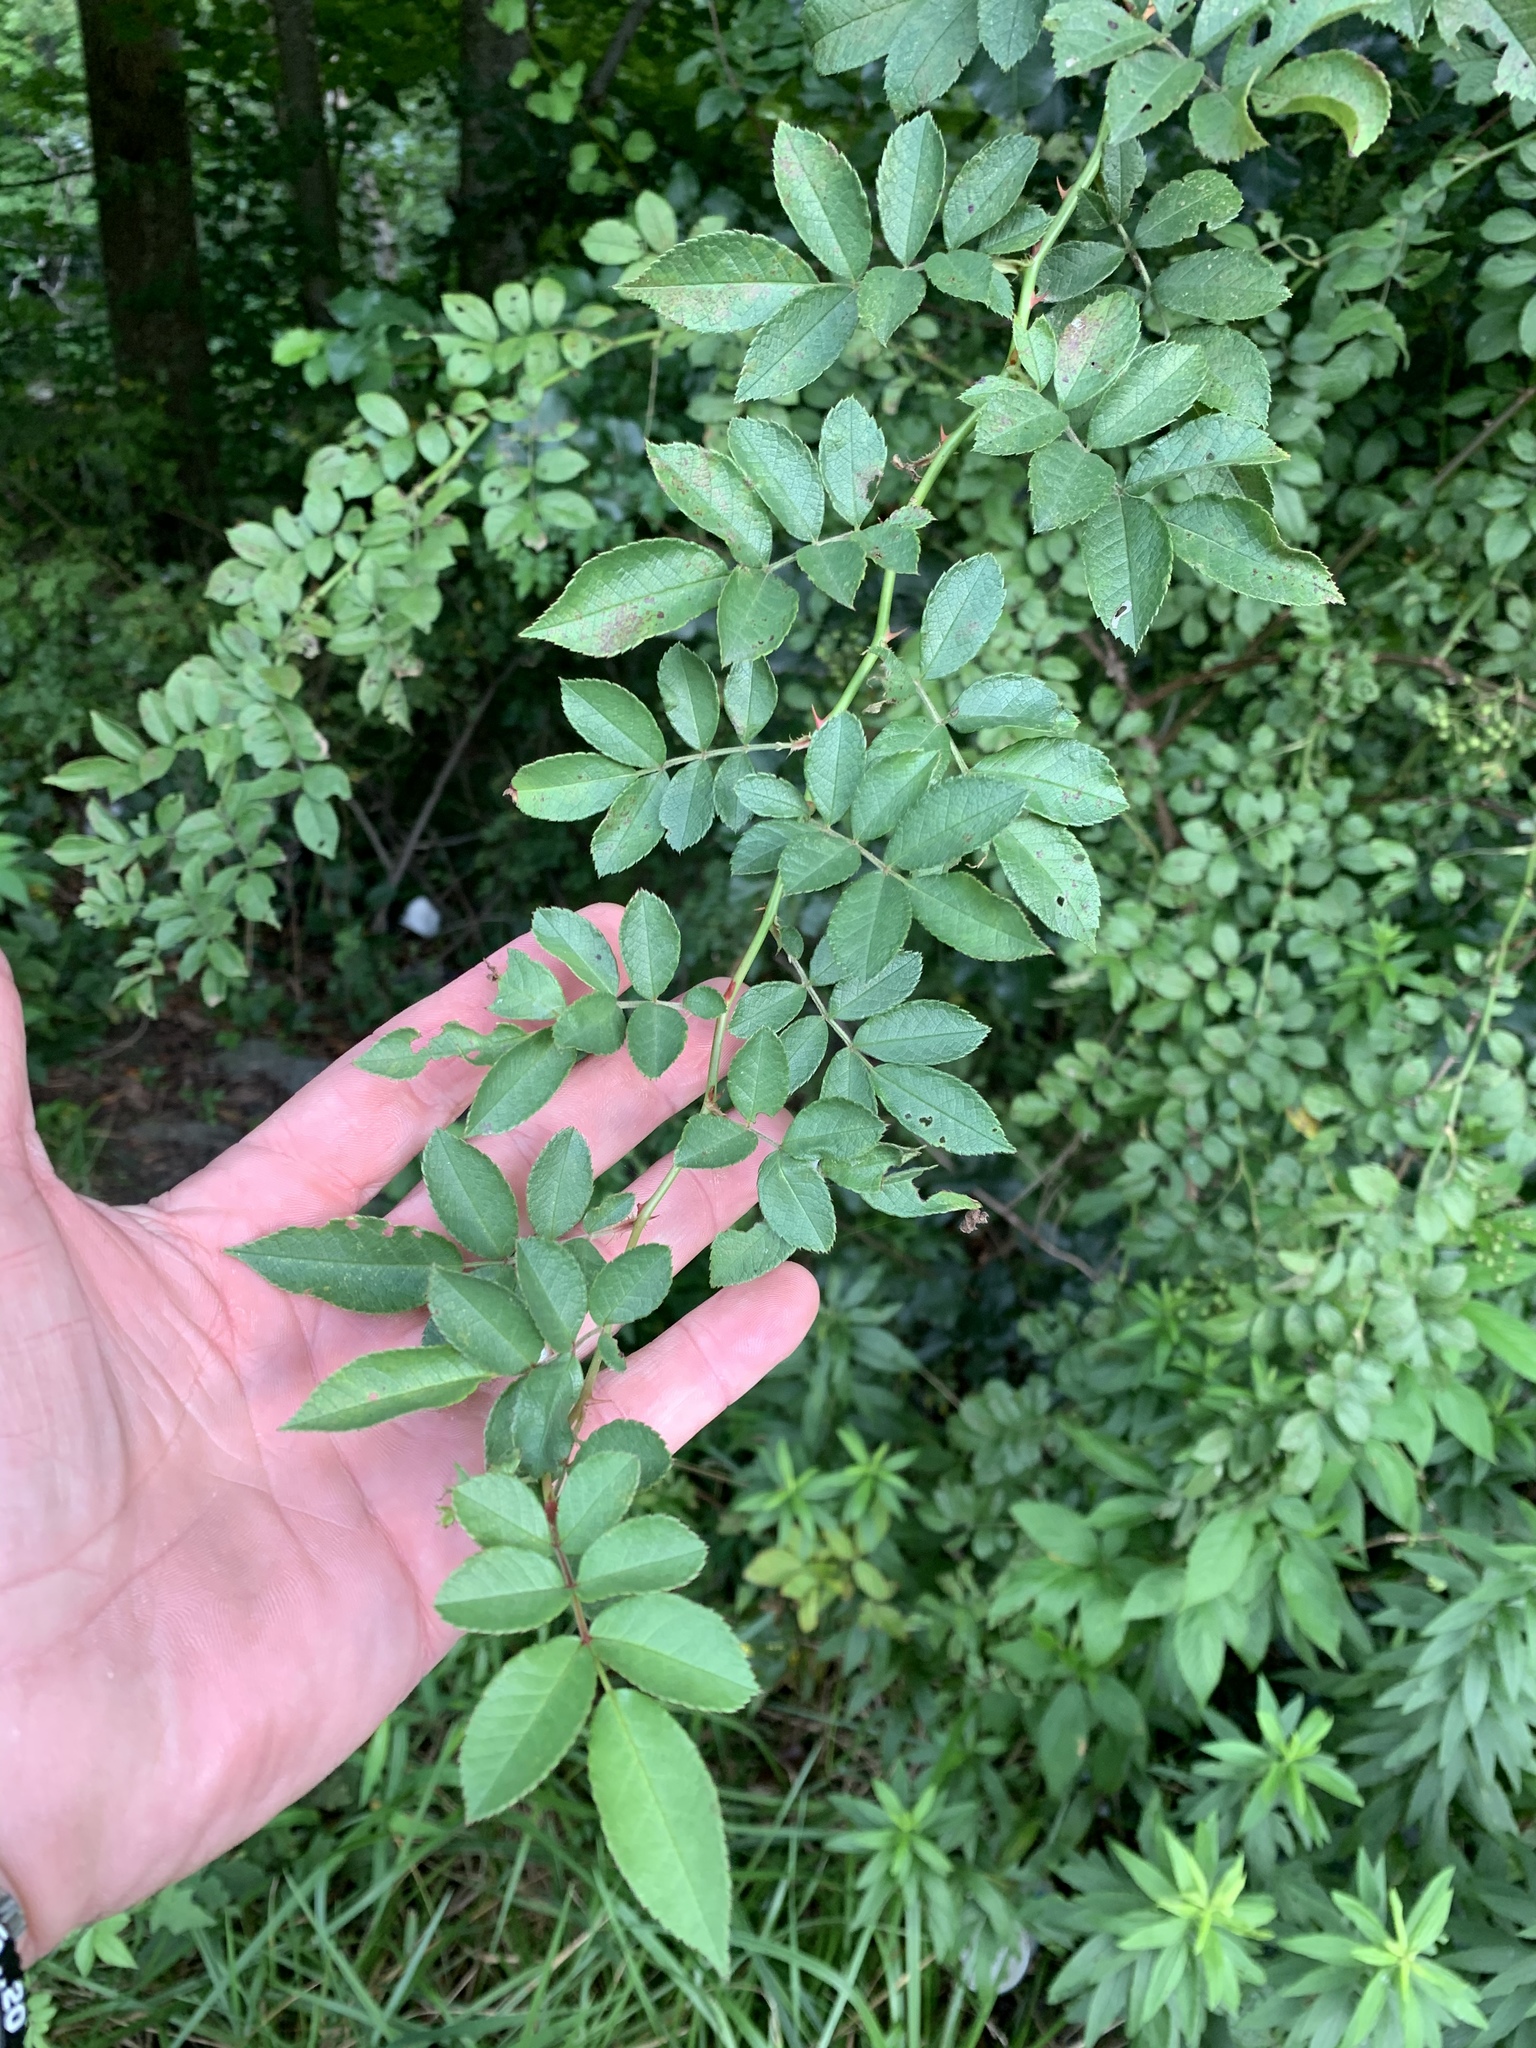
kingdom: Plantae
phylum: Tracheophyta
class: Magnoliopsida
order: Rosales
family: Rosaceae
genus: Rosa
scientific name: Rosa multiflora
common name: Multiflora rose
